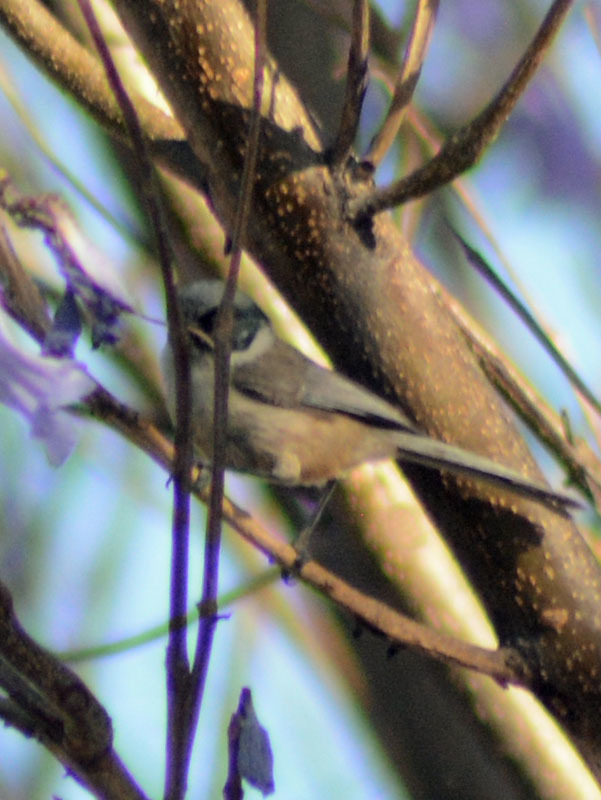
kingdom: Animalia
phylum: Chordata
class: Aves
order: Passeriformes
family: Aegithalidae
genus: Psaltriparus
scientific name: Psaltriparus minimus
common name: American bushtit
